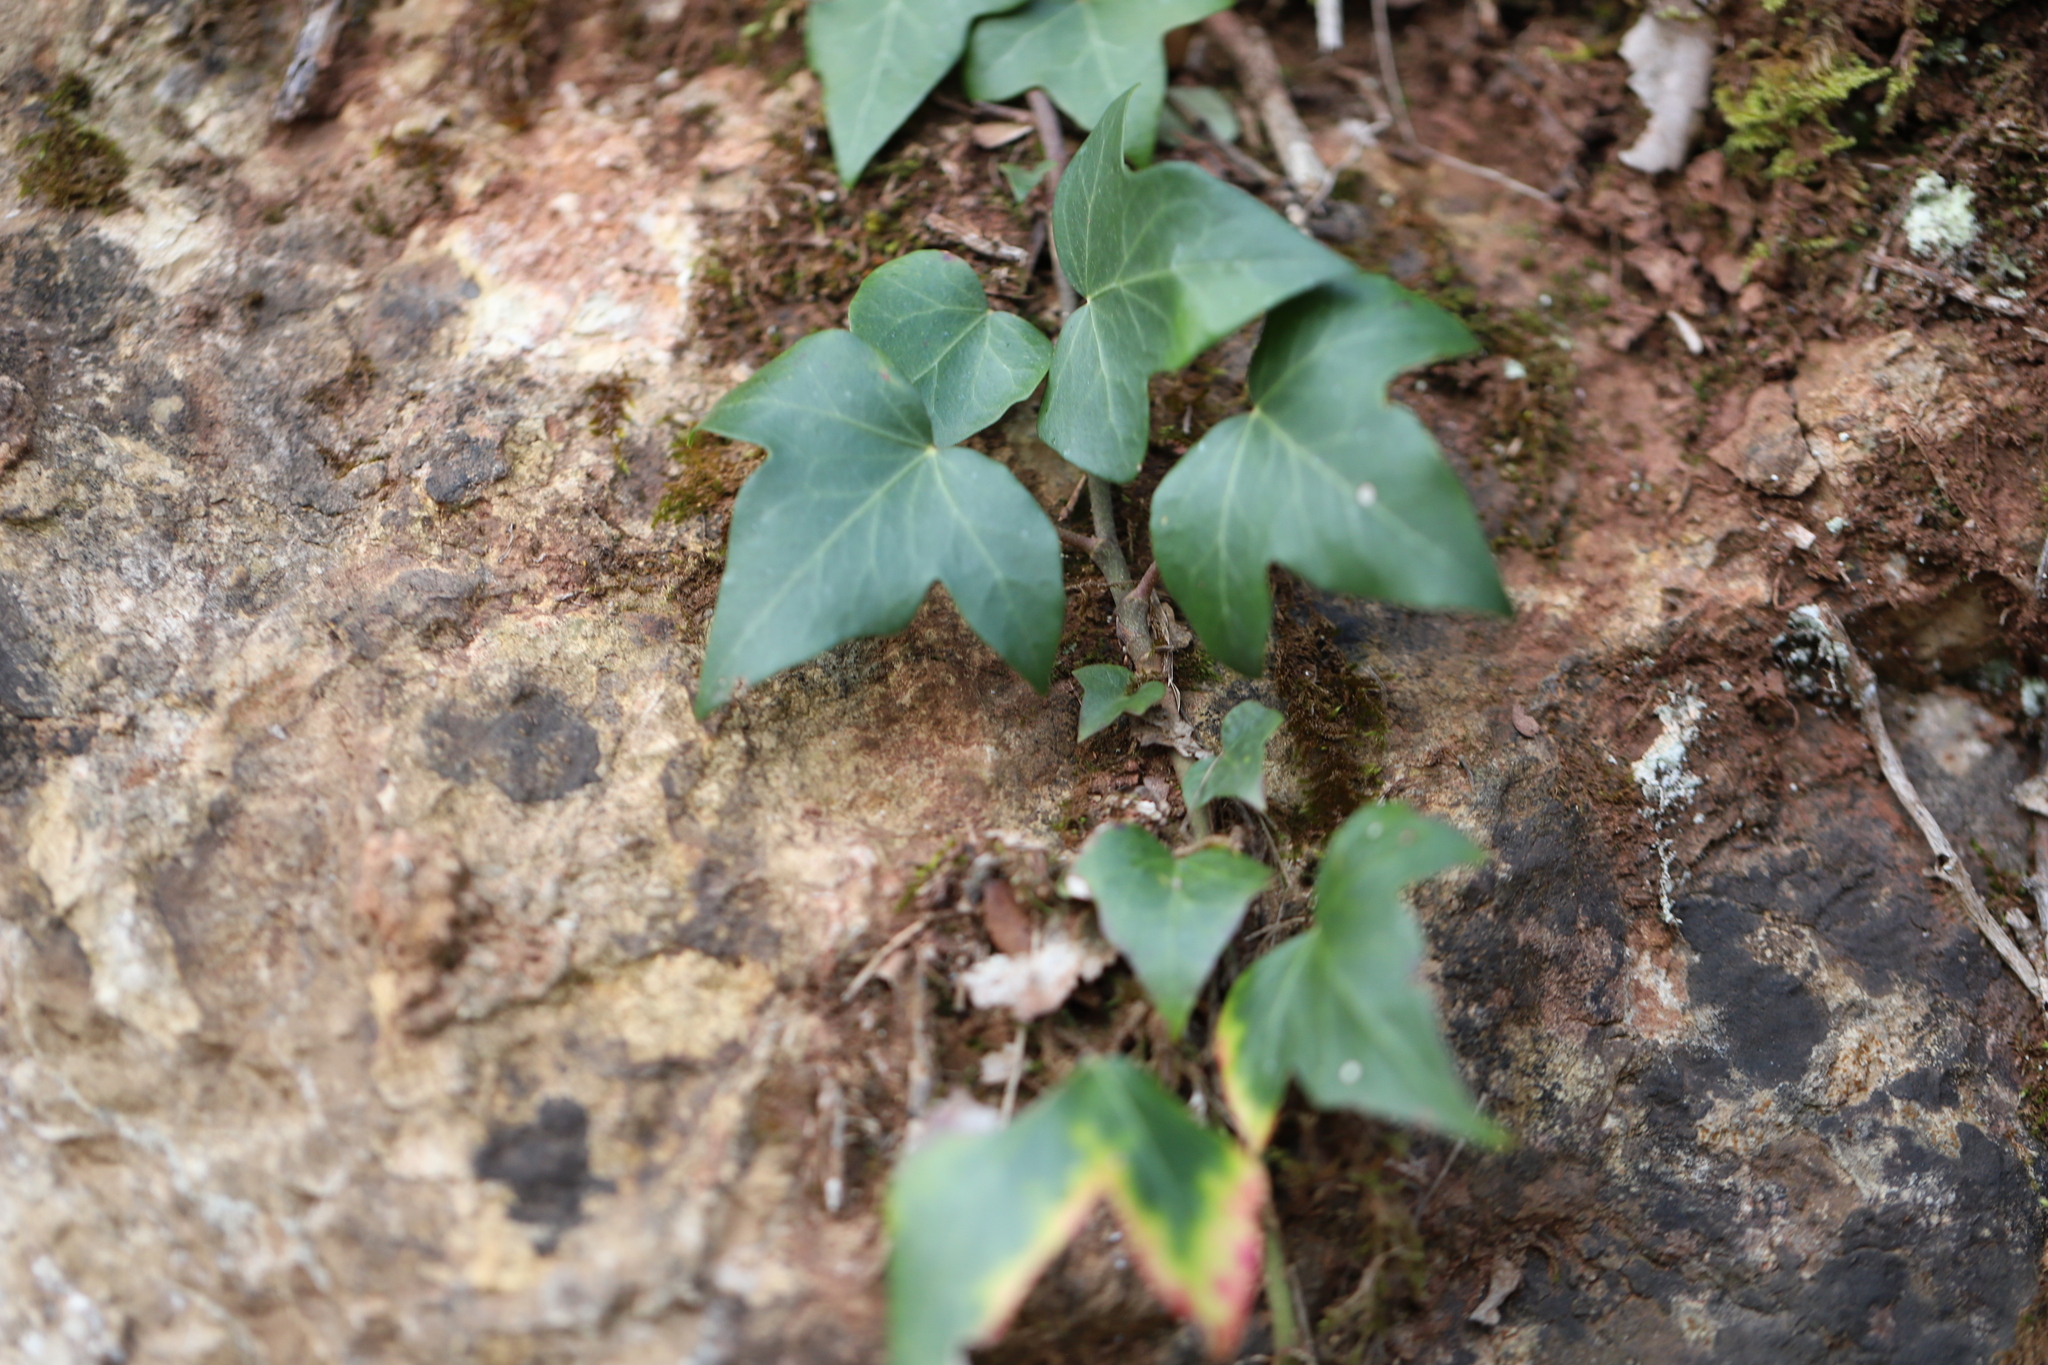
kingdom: Plantae
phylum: Tracheophyta
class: Magnoliopsida
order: Apiales
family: Araliaceae
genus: Hedera
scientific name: Hedera helix
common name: Ivy
